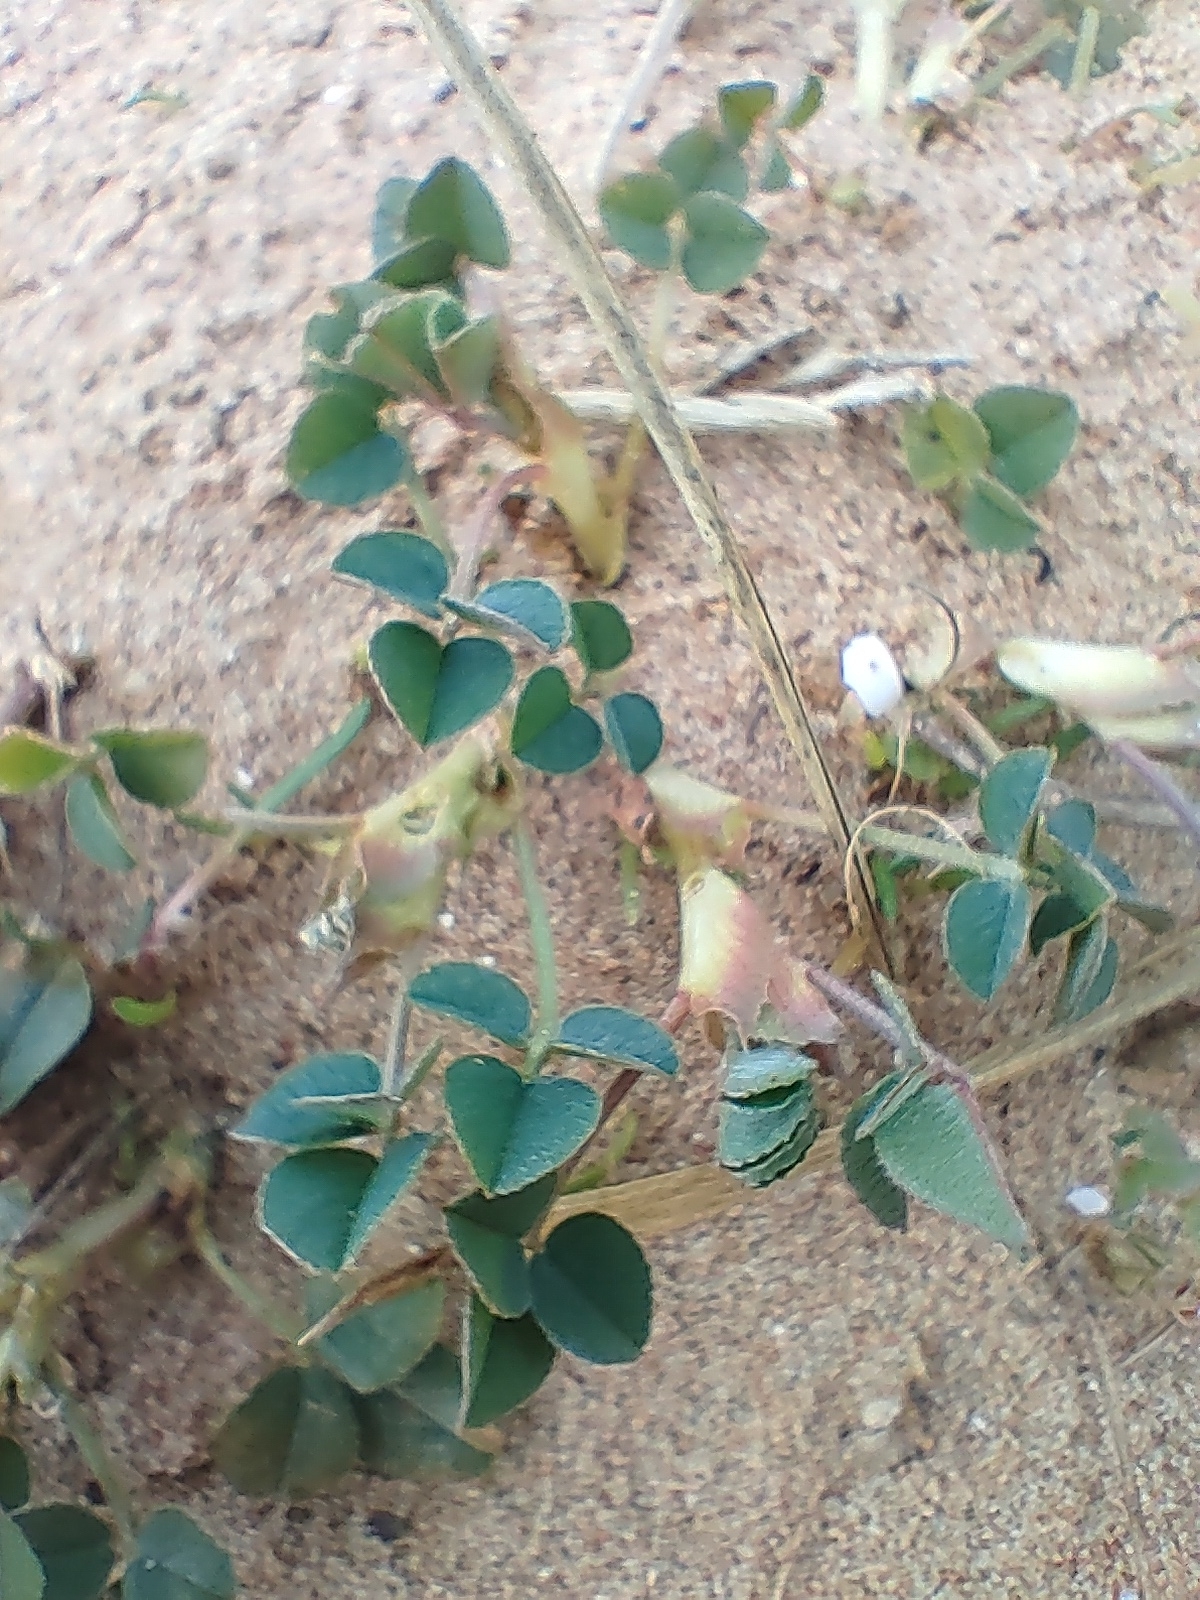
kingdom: Plantae
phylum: Tracheophyta
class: Magnoliopsida
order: Fabales
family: Fabaceae
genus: Medicago
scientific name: Medicago lupulina
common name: Black medick
